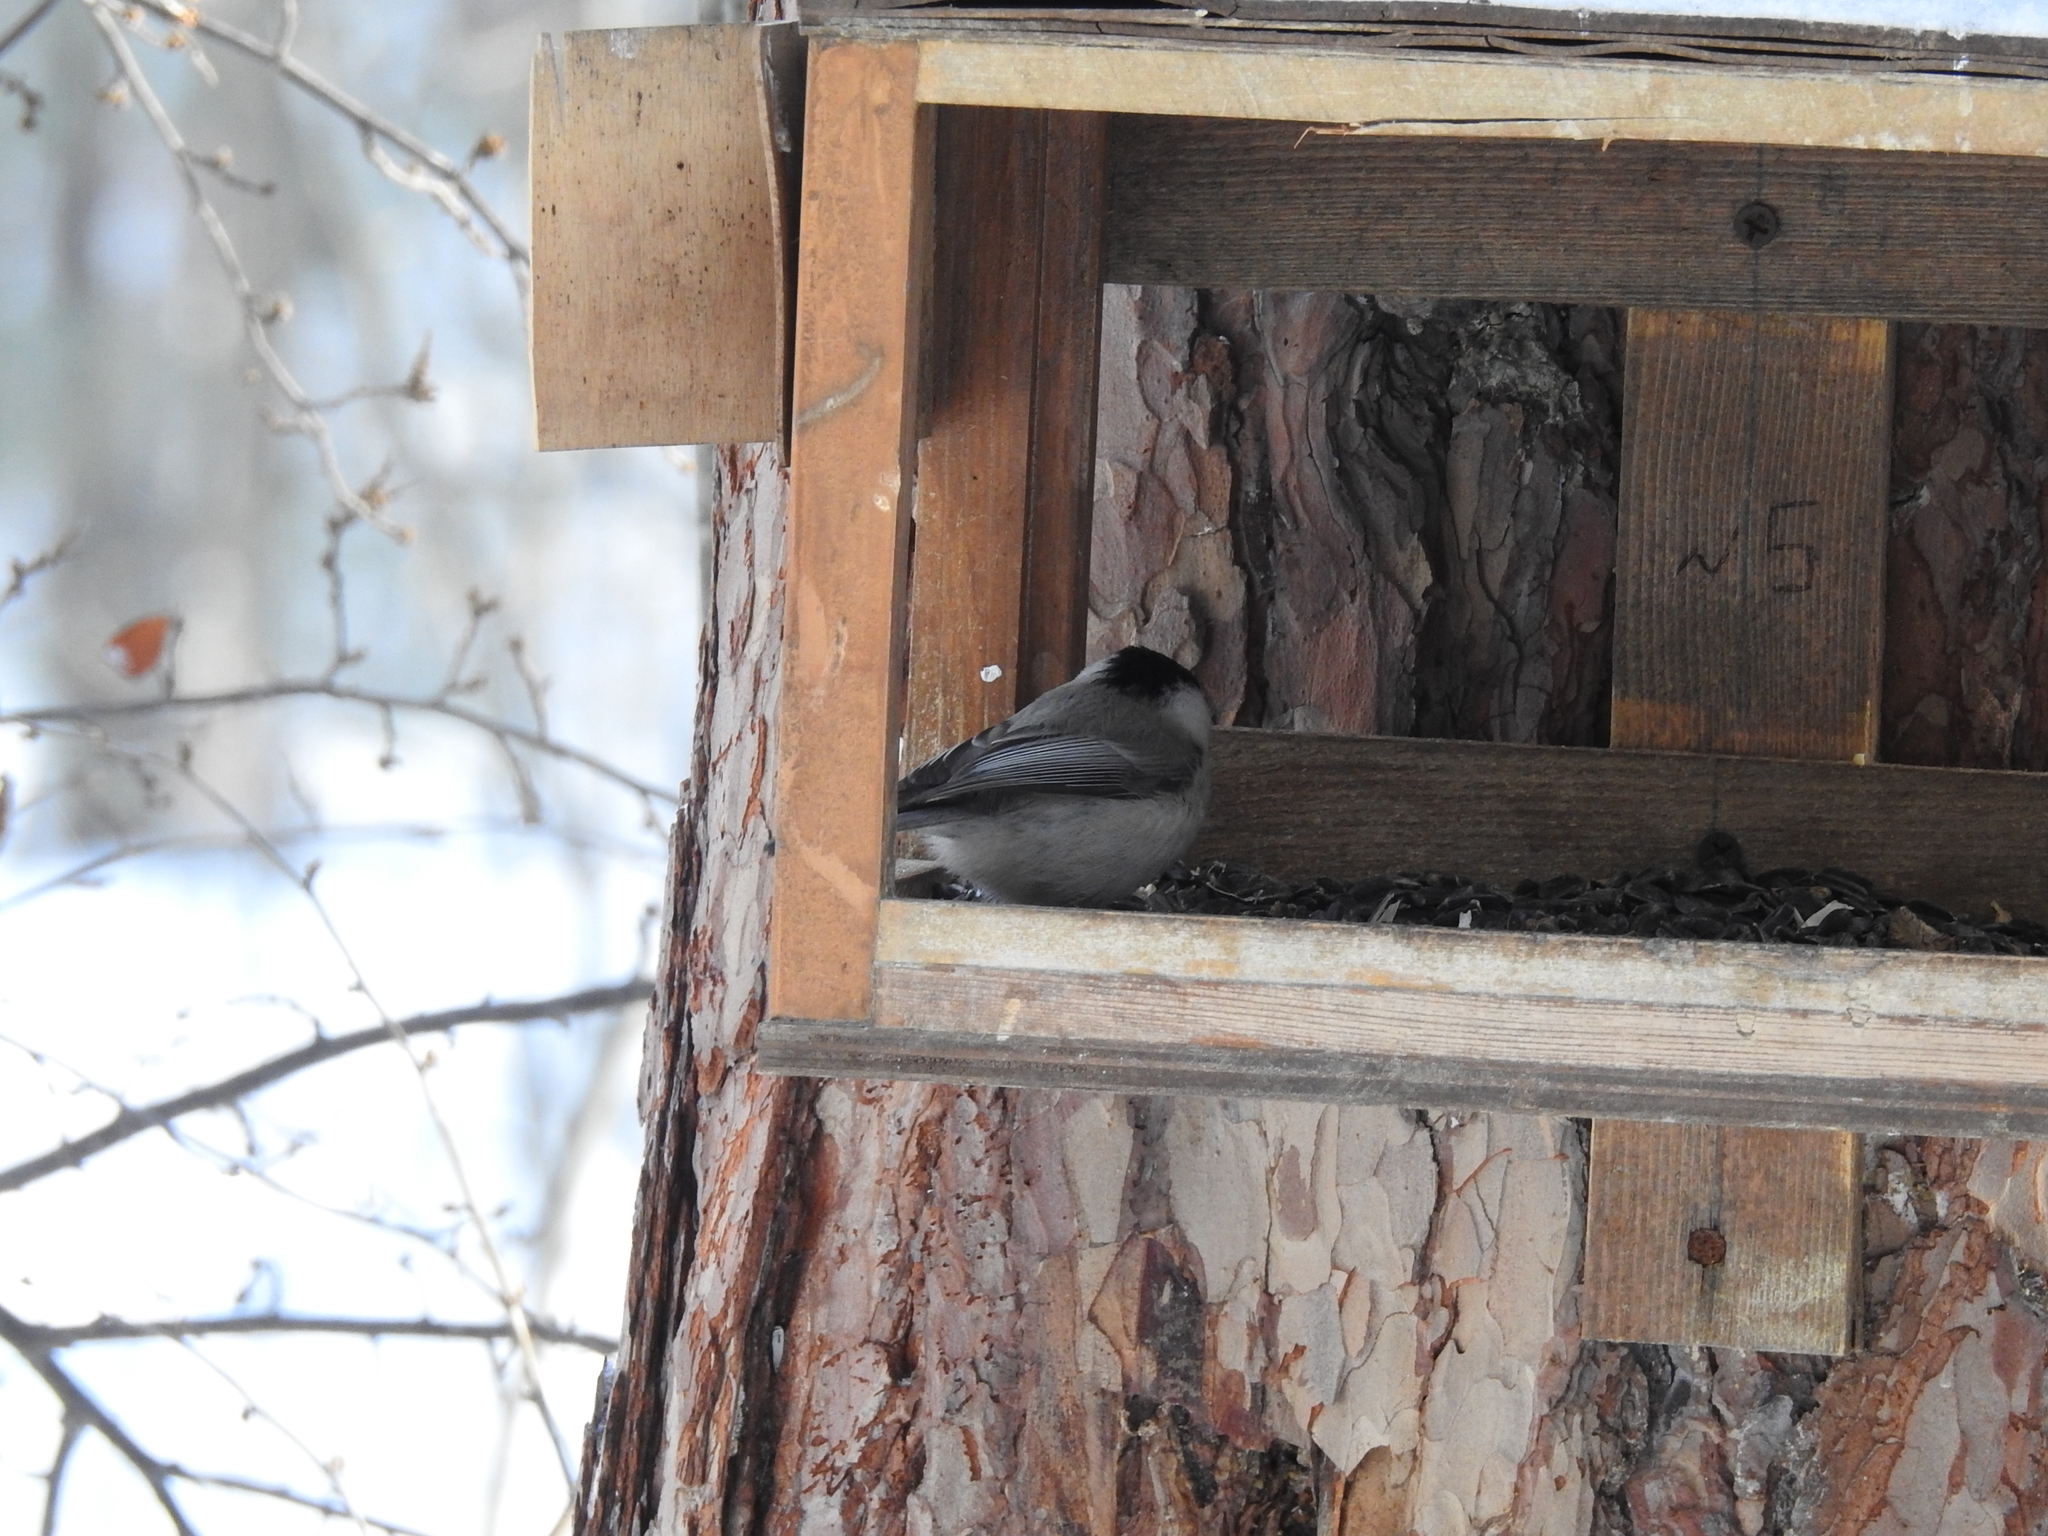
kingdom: Animalia
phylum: Chordata
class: Aves
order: Passeriformes
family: Paridae
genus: Poecile
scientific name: Poecile montanus
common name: Willow tit
